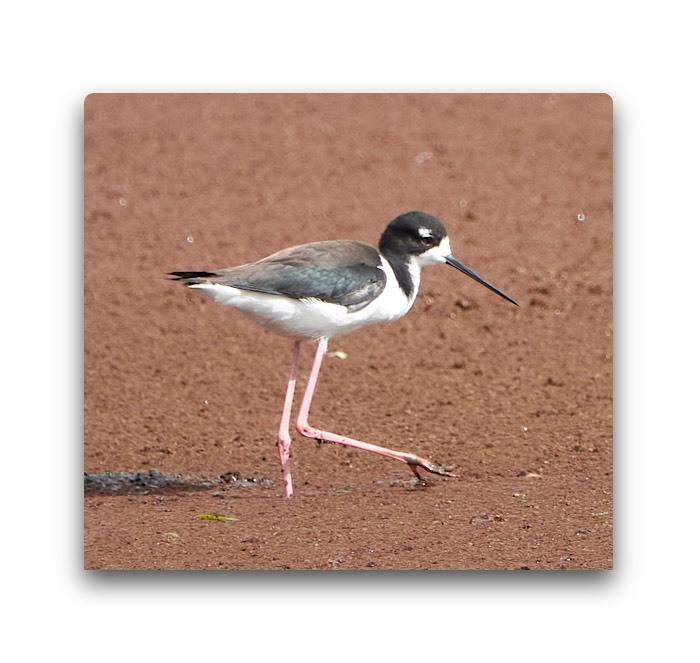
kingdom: Animalia
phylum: Chordata
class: Aves
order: Charadriiformes
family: Recurvirostridae
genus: Himantopus
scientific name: Himantopus mexicanus
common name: Black-necked stilt
